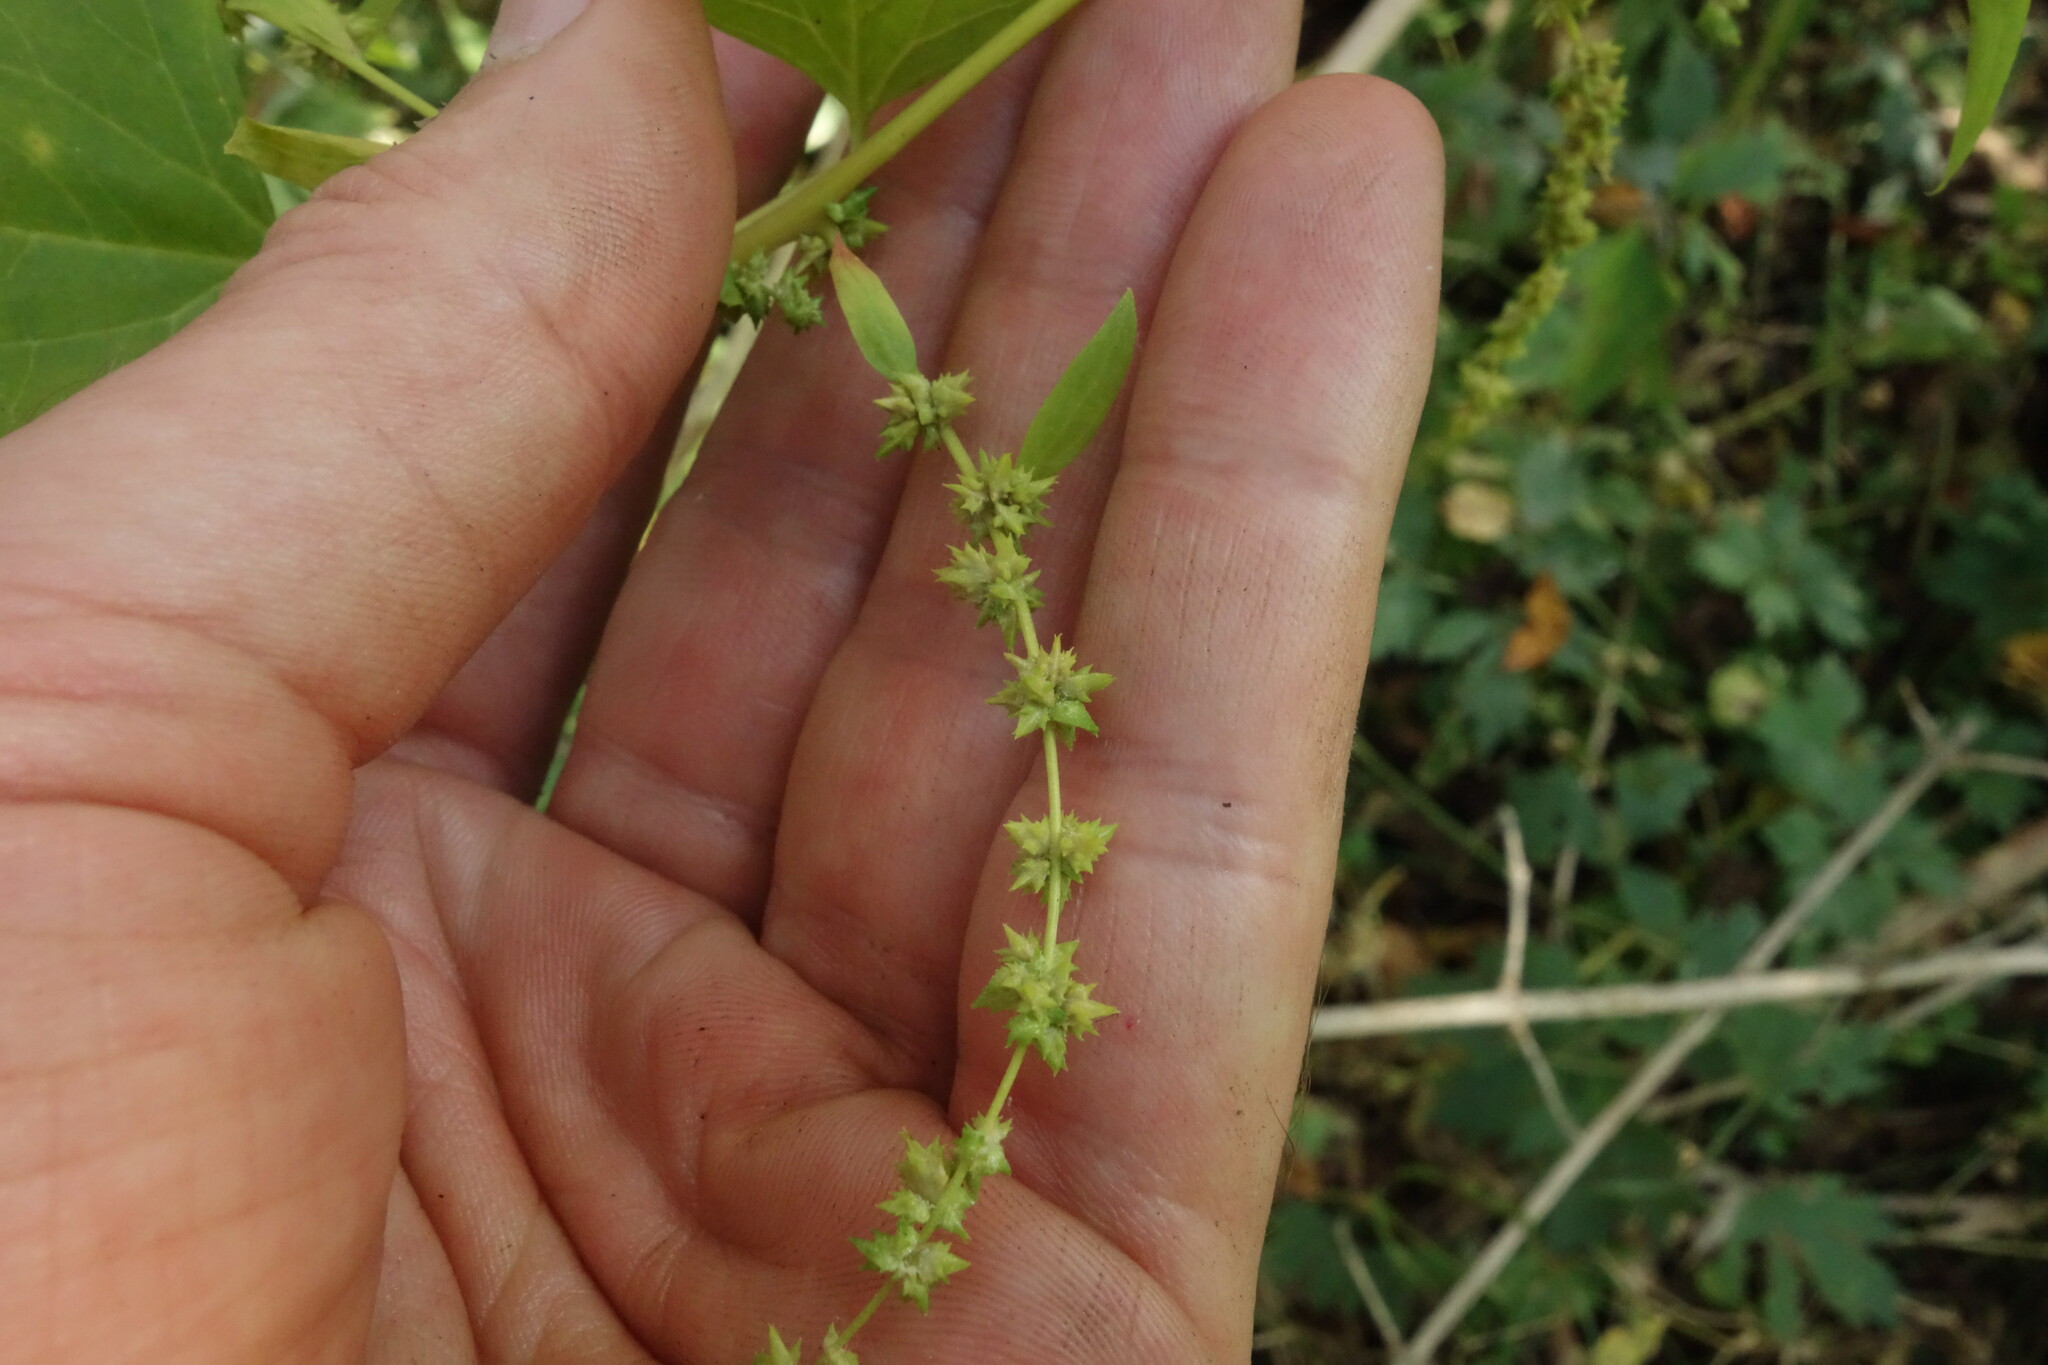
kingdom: Plantae
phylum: Tracheophyta
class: Magnoliopsida
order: Caryophyllales
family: Amaranthaceae
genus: Atriplex
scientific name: Atriplex prostrata
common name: Spear-leaved orache
